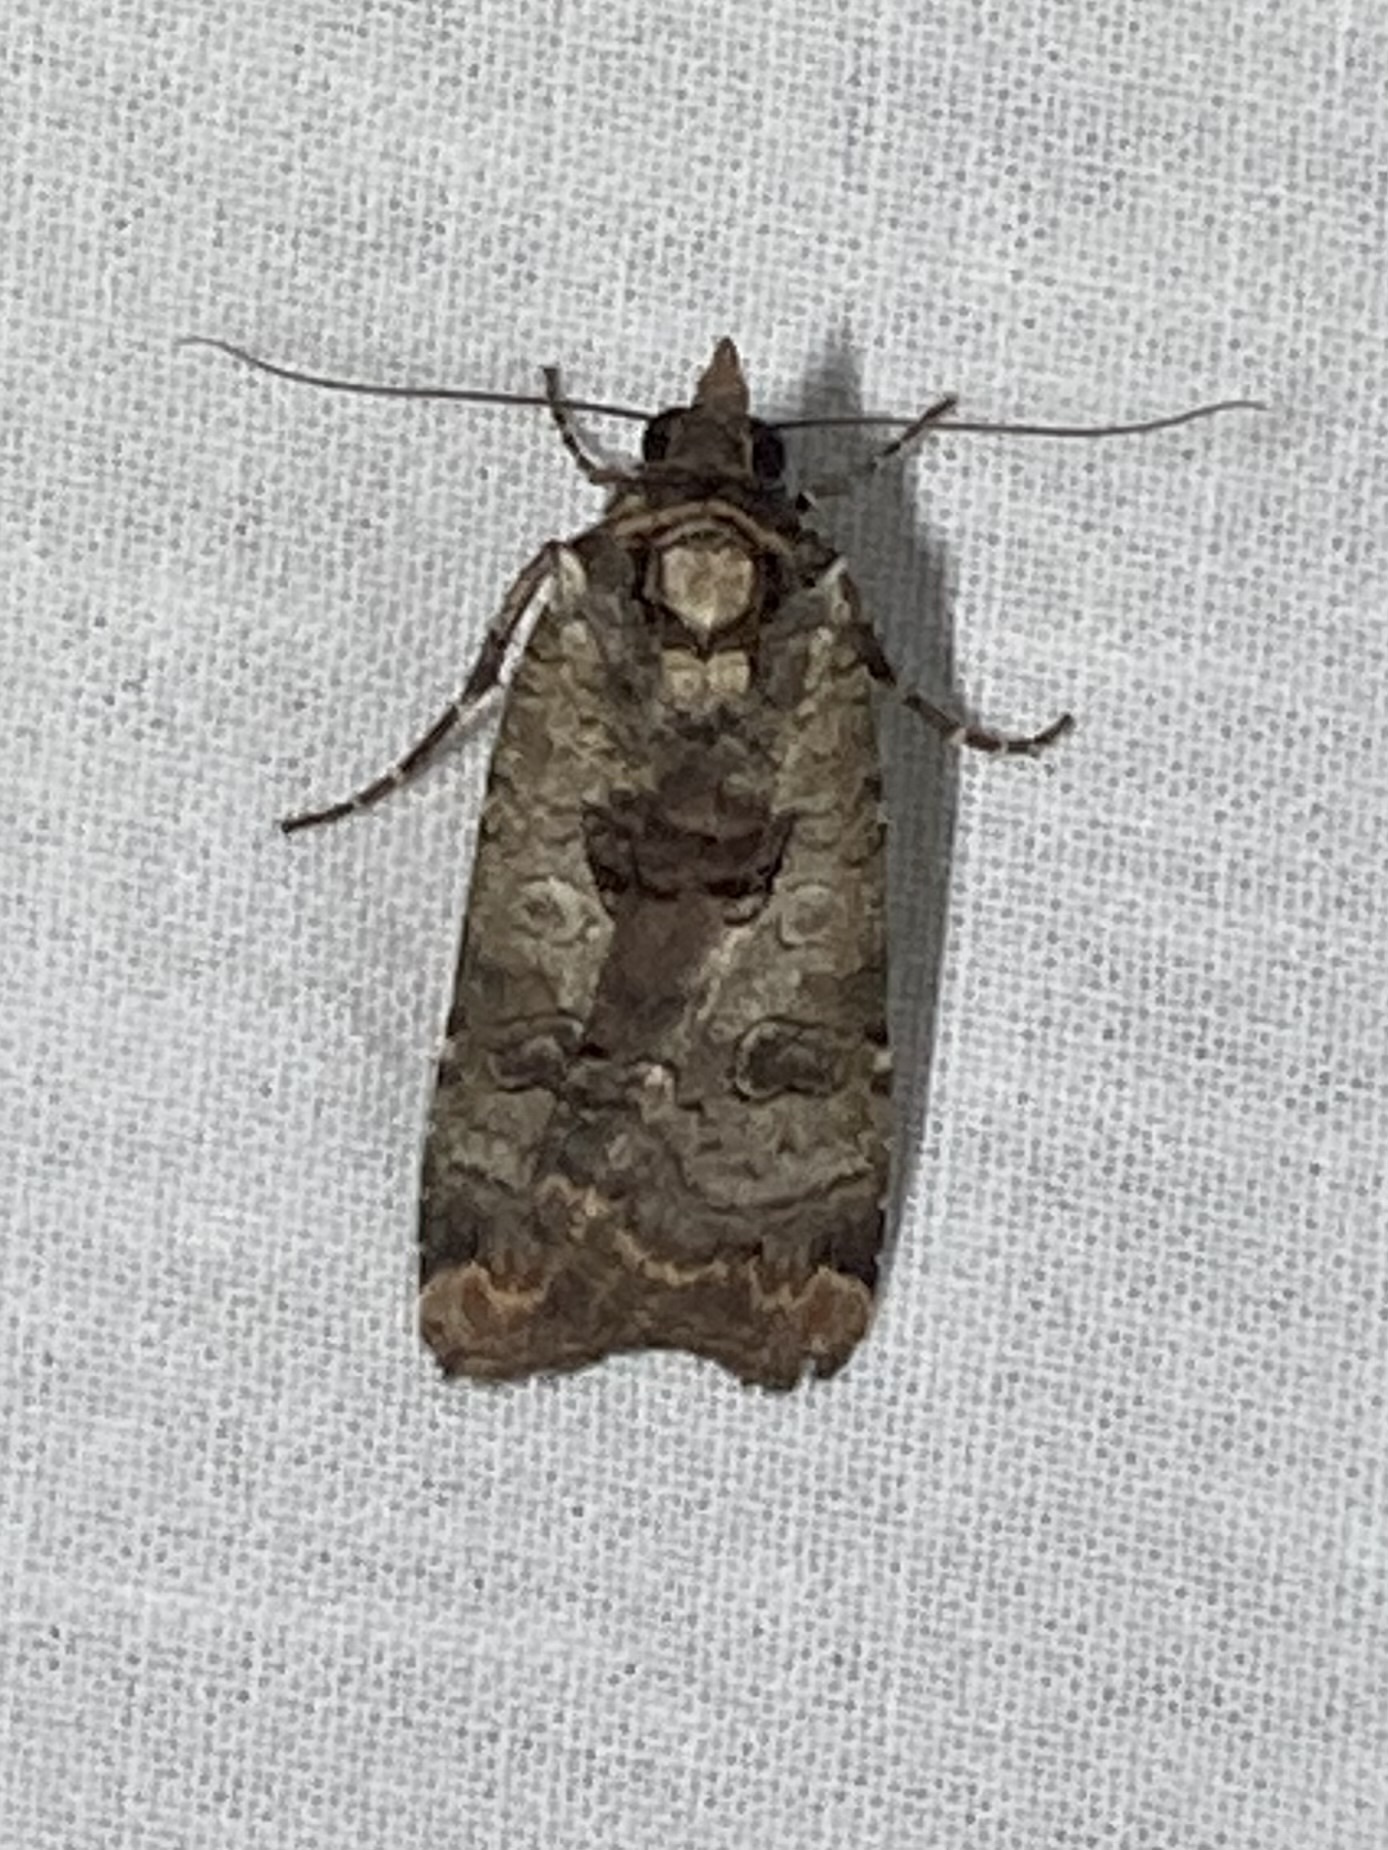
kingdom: Animalia
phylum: Arthropoda
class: Insecta
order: Lepidoptera
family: Noctuidae
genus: Epilecta
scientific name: Epilecta linogrisea
